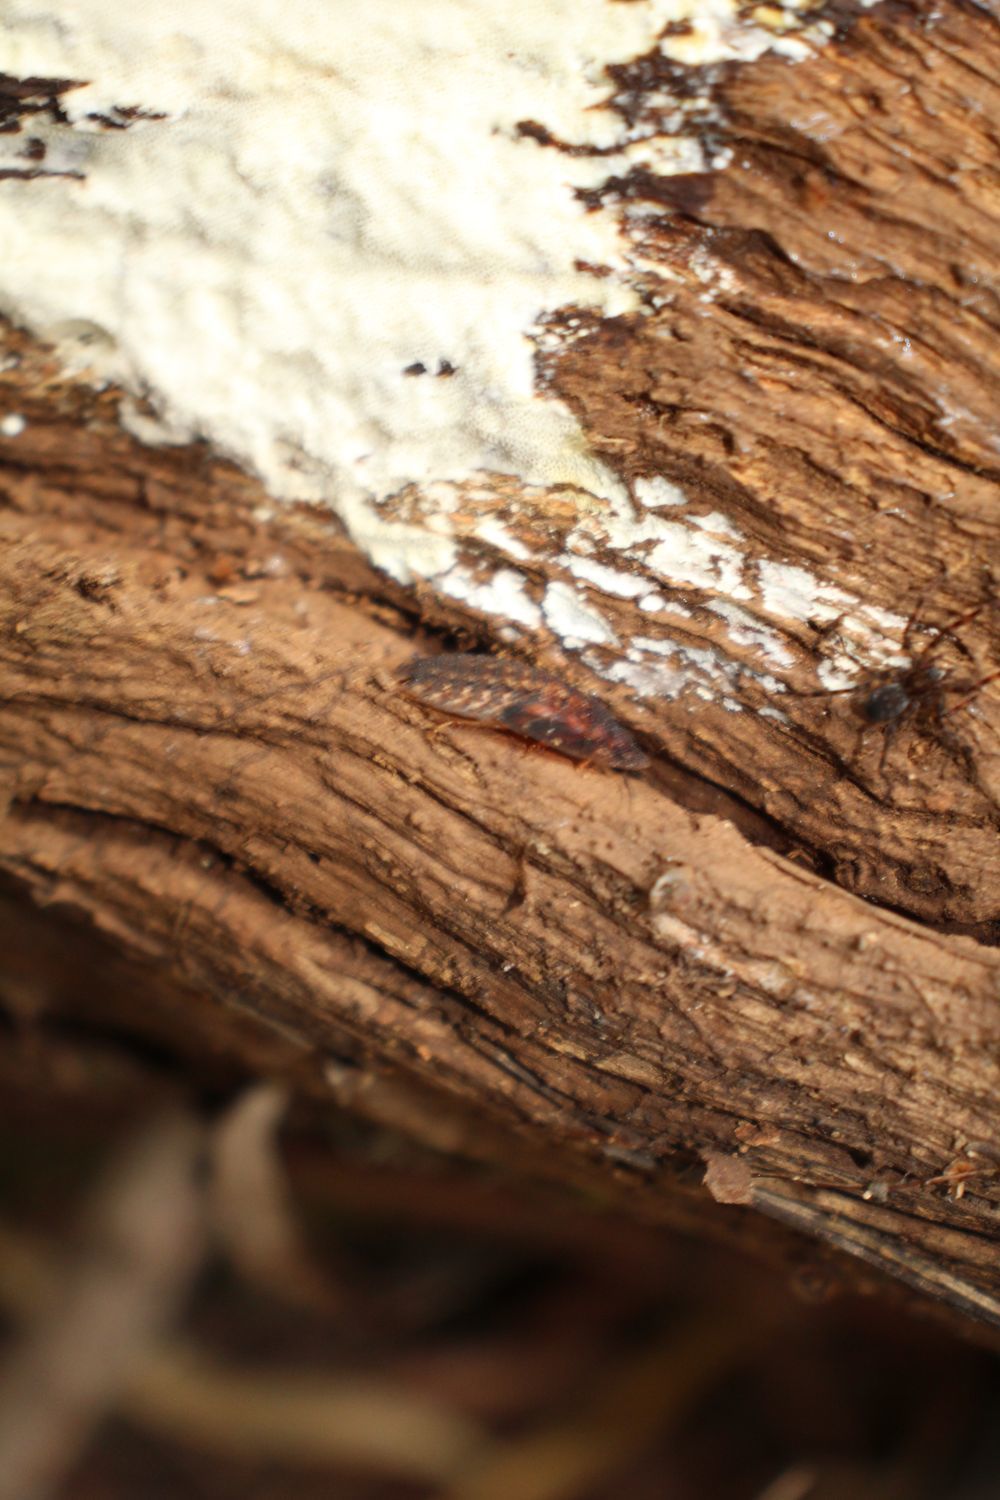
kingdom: Animalia
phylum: Arthropoda
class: Insecta
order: Blattodea
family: Blaberidae
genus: Laxta
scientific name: Laxta rieki
